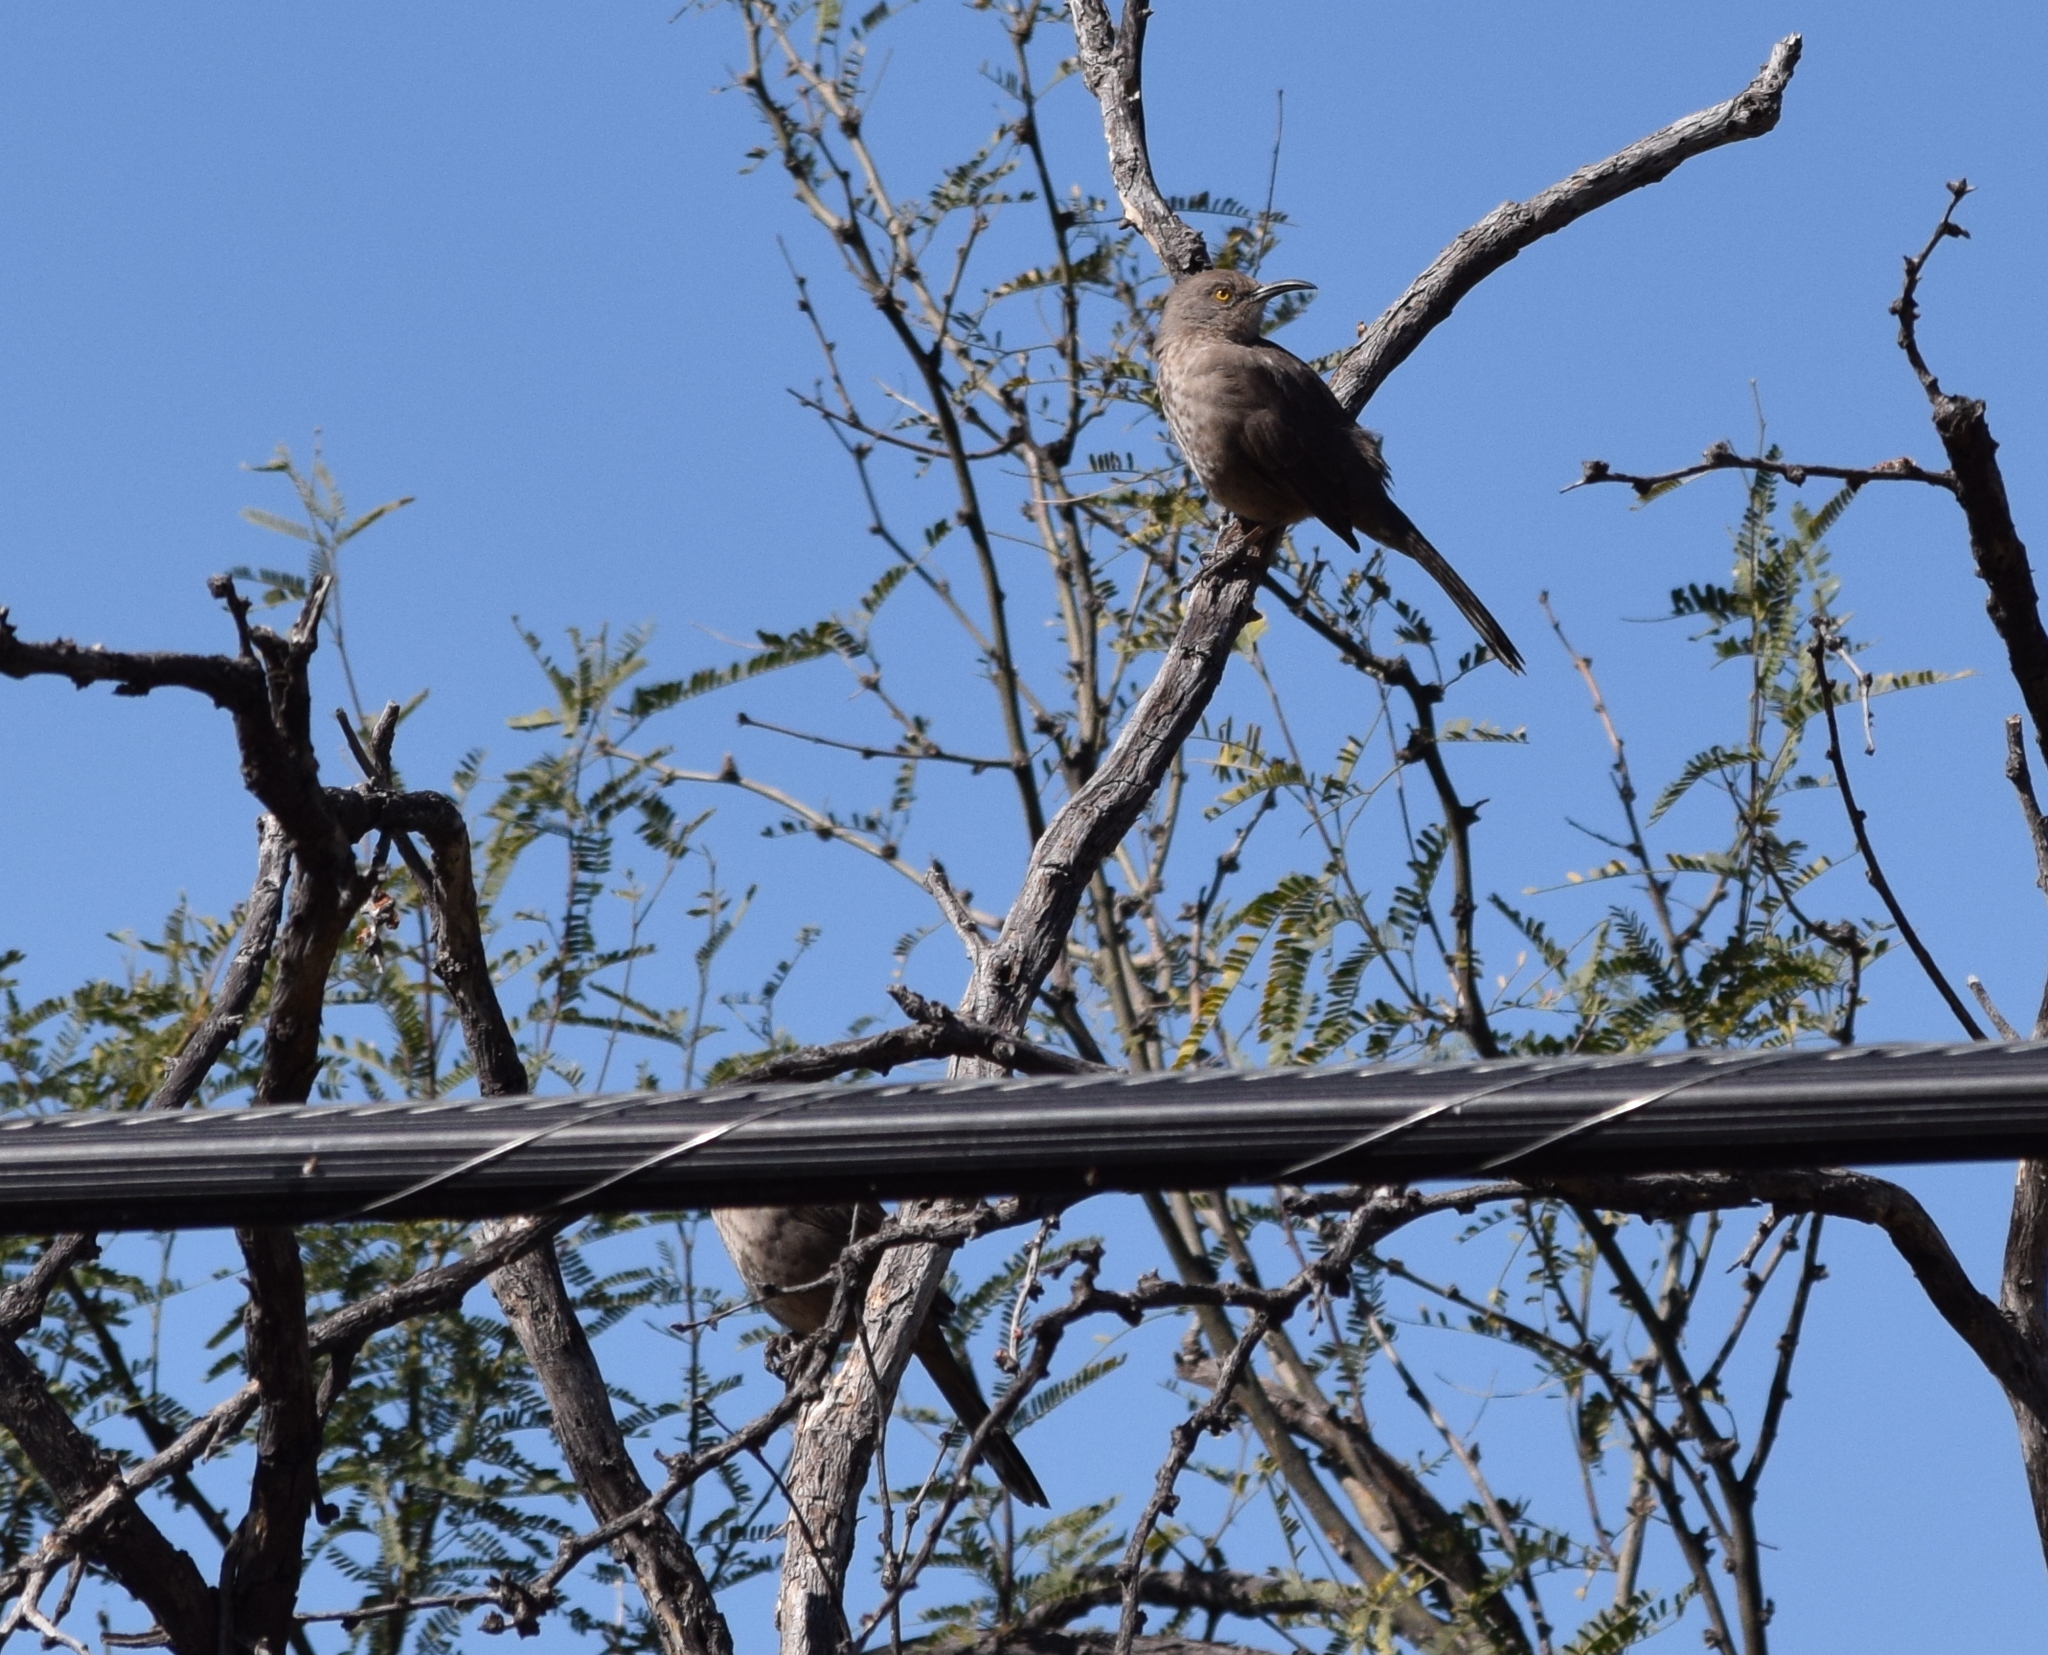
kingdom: Animalia
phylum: Chordata
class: Aves
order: Passeriformes
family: Mimidae
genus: Toxostoma
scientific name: Toxostoma curvirostre
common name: Curve-billed thrasher
